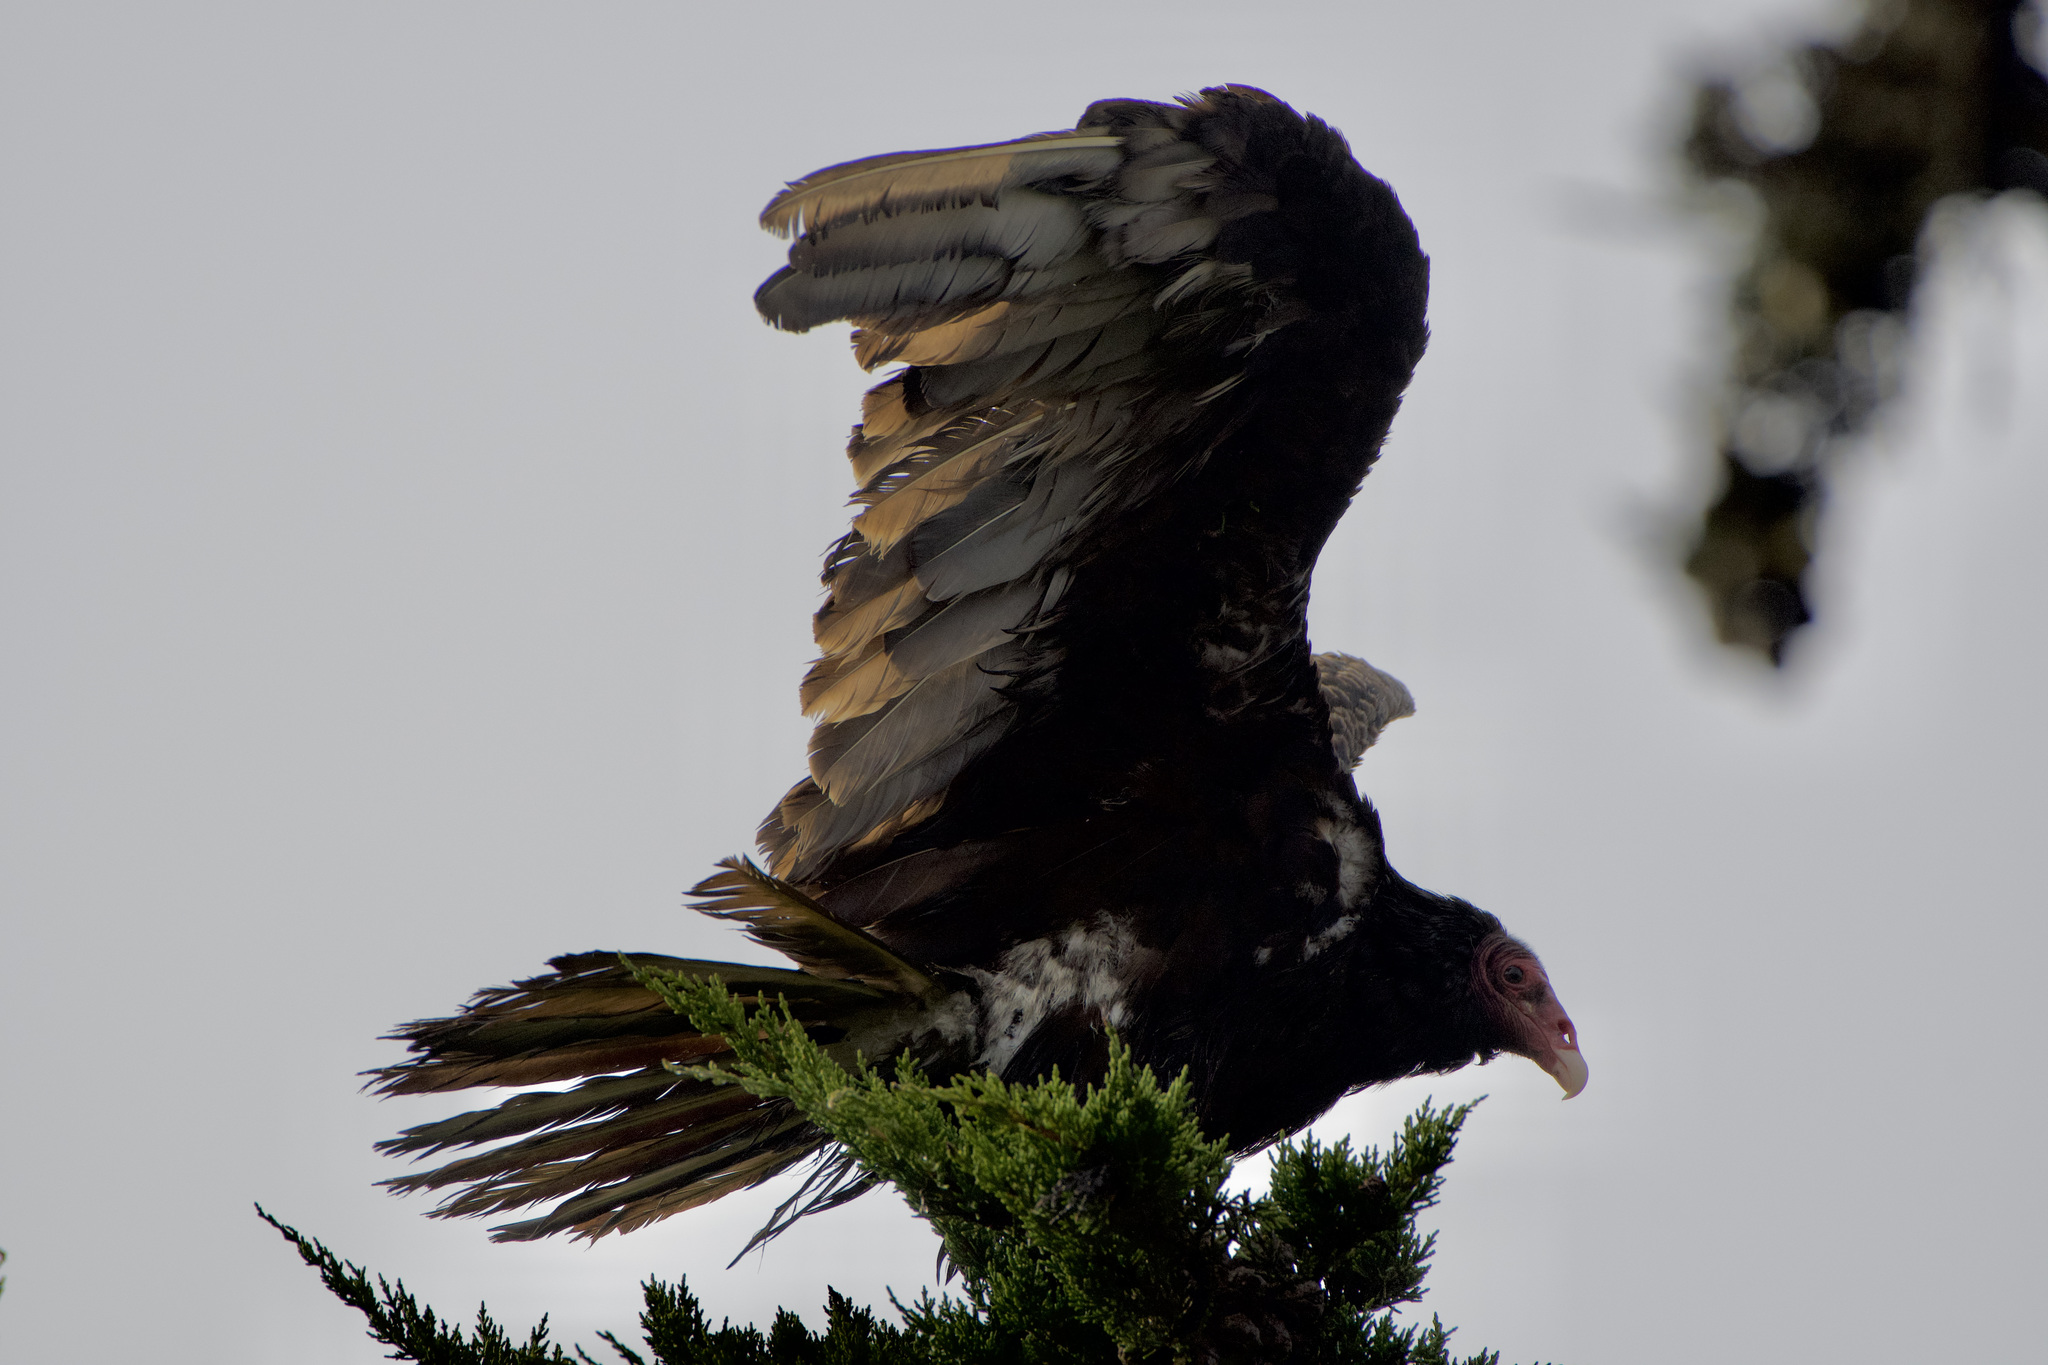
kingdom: Animalia
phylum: Chordata
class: Aves
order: Accipitriformes
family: Cathartidae
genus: Cathartes
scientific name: Cathartes aura
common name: Turkey vulture
